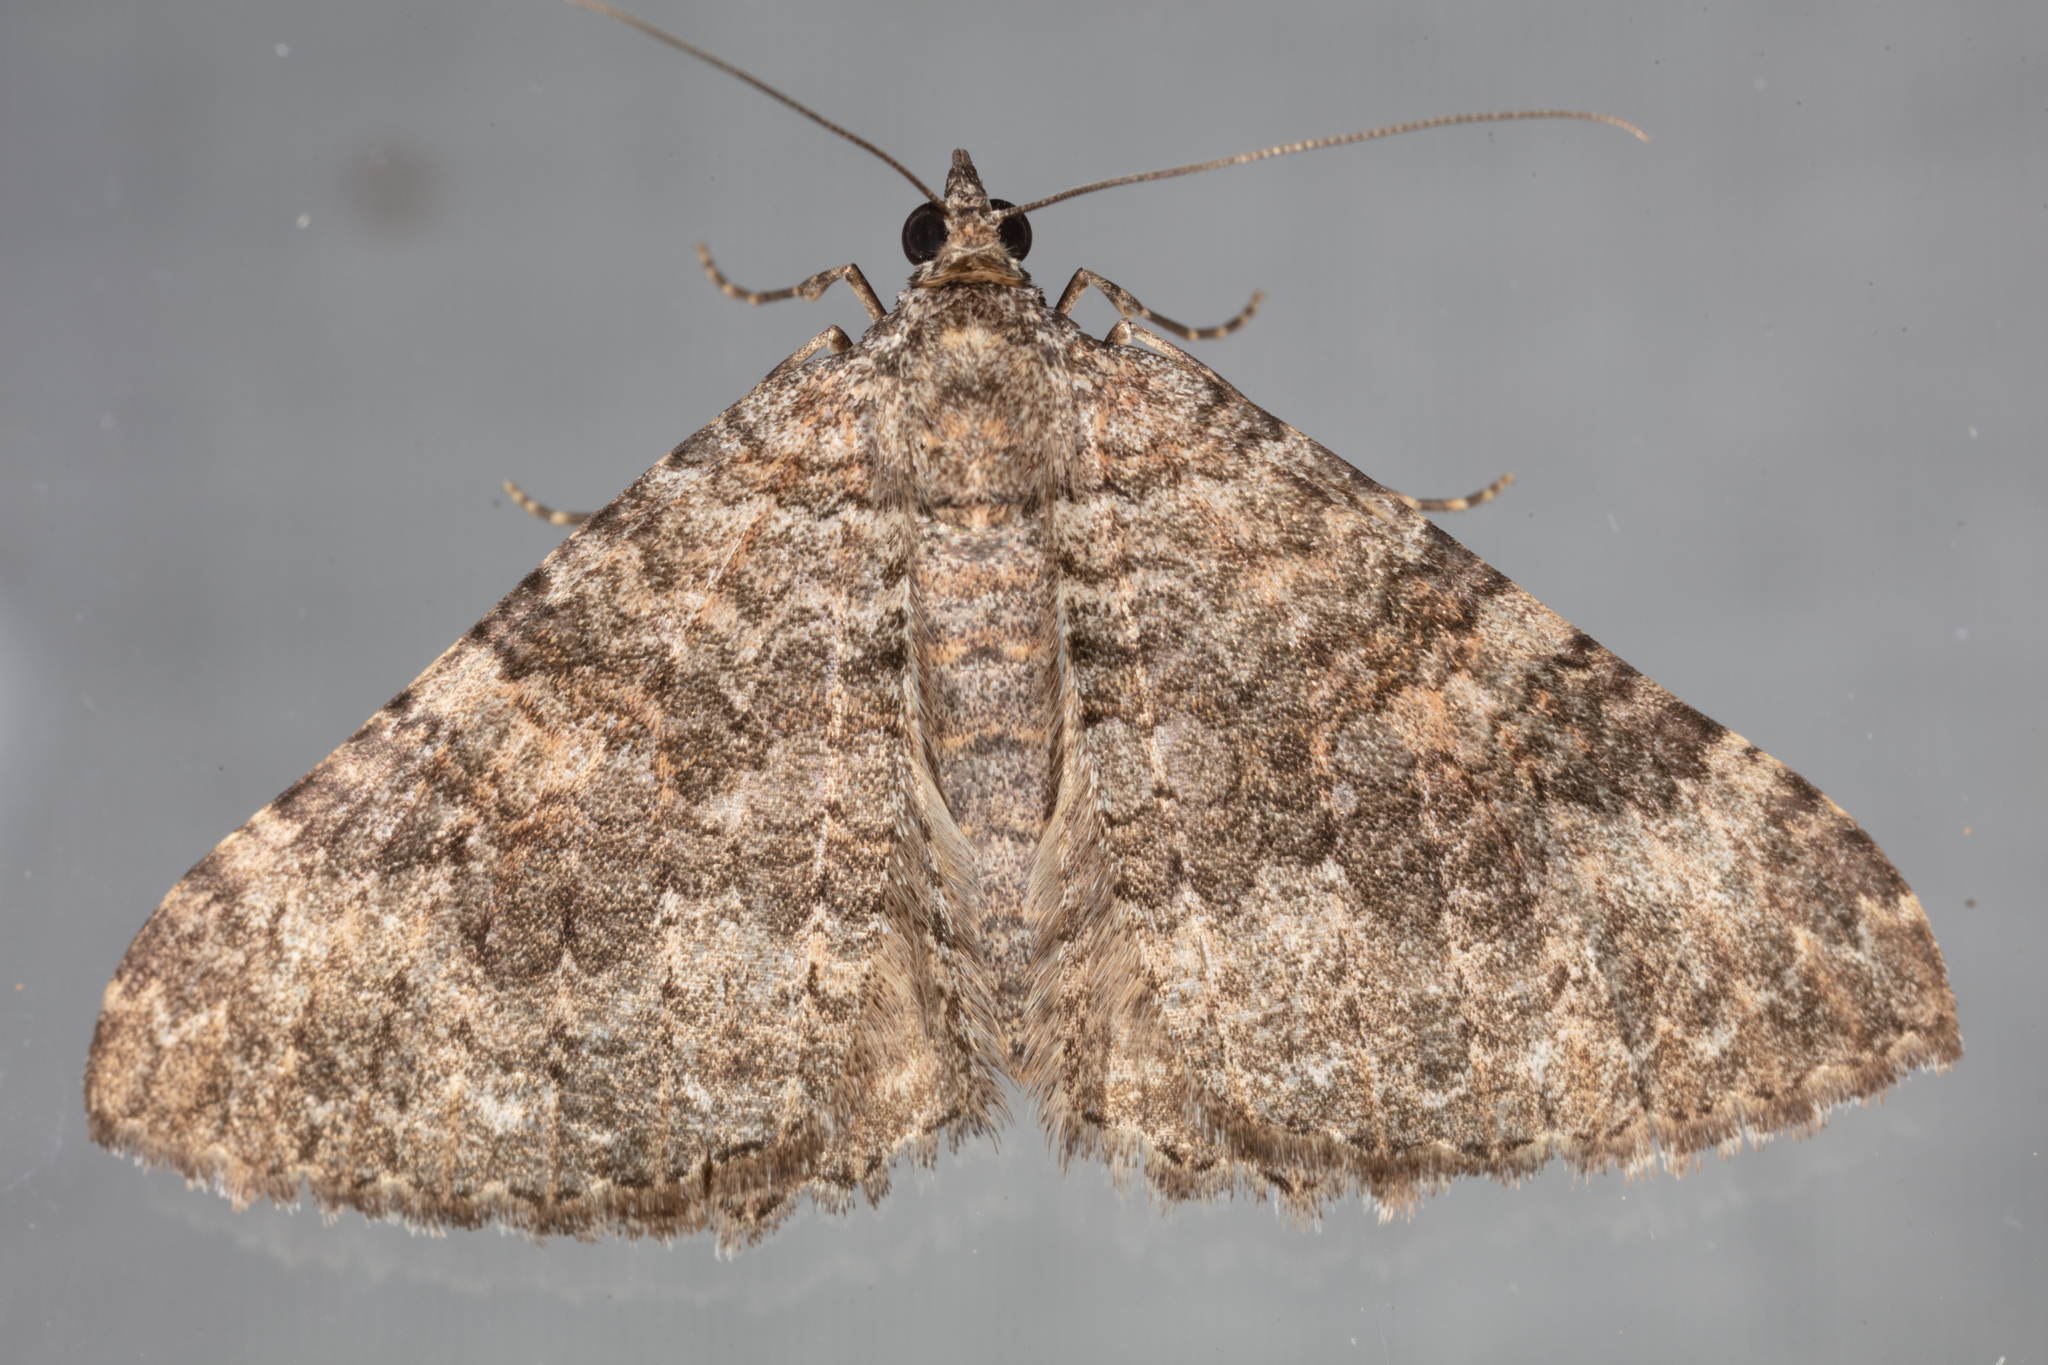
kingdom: Animalia
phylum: Arthropoda
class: Insecta
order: Lepidoptera
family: Geometridae
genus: Archirhoe
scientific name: Archirhoe neomexicana
